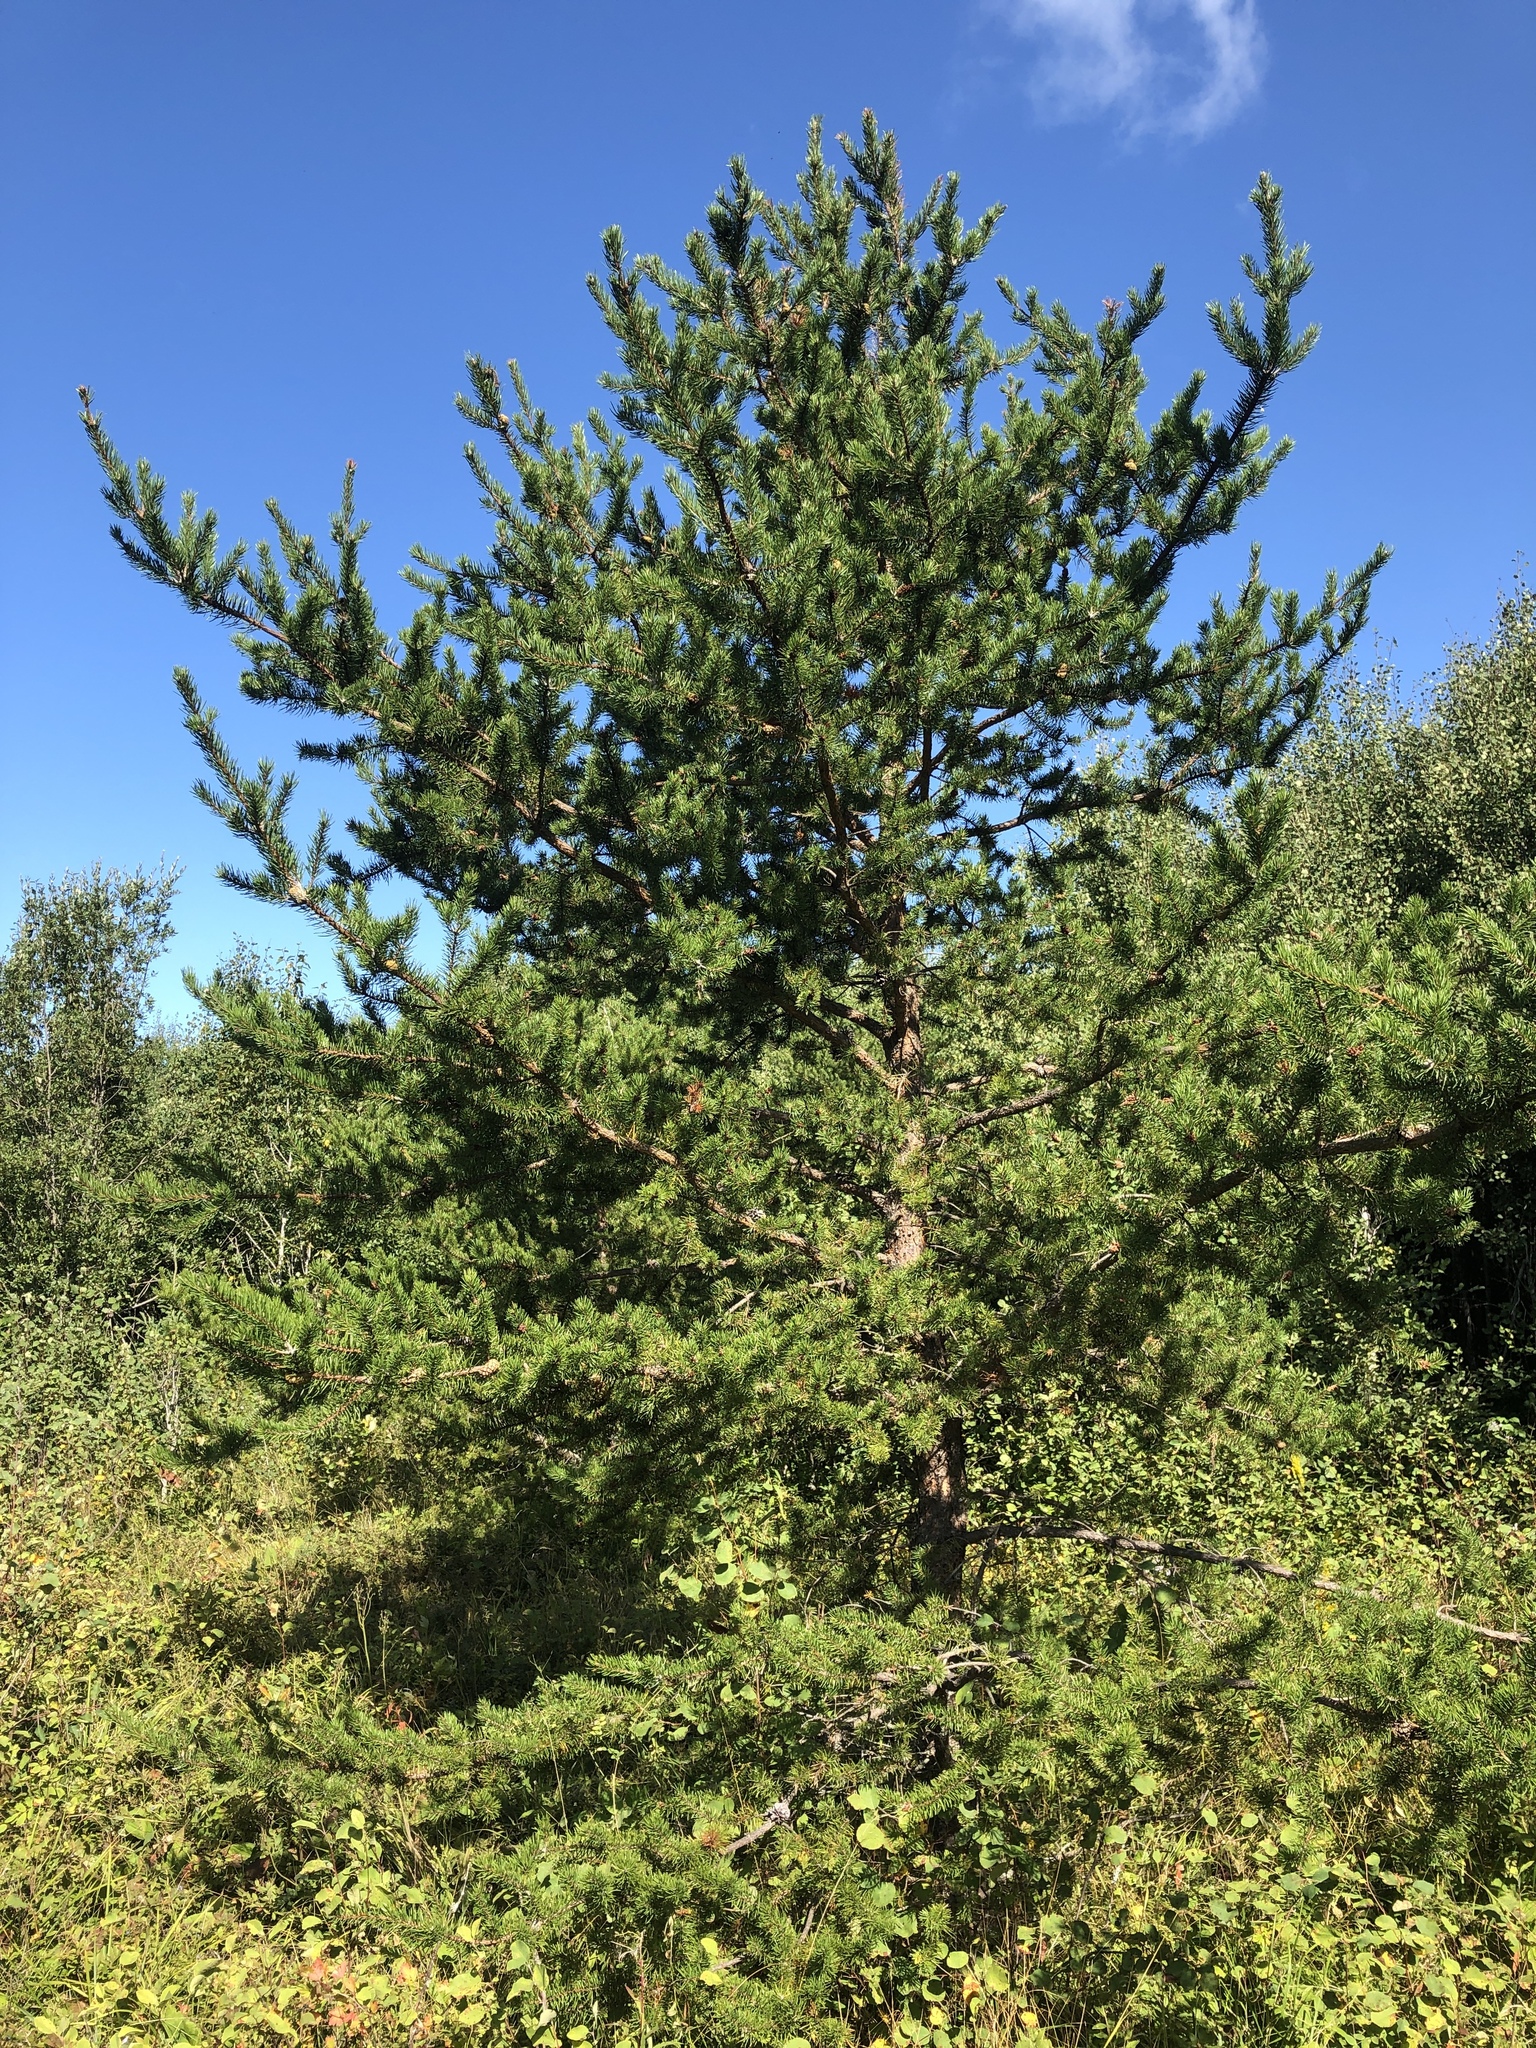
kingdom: Plantae
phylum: Tracheophyta
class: Pinopsida
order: Pinales
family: Pinaceae
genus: Pinus
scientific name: Pinus banksiana
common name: Jack pine
